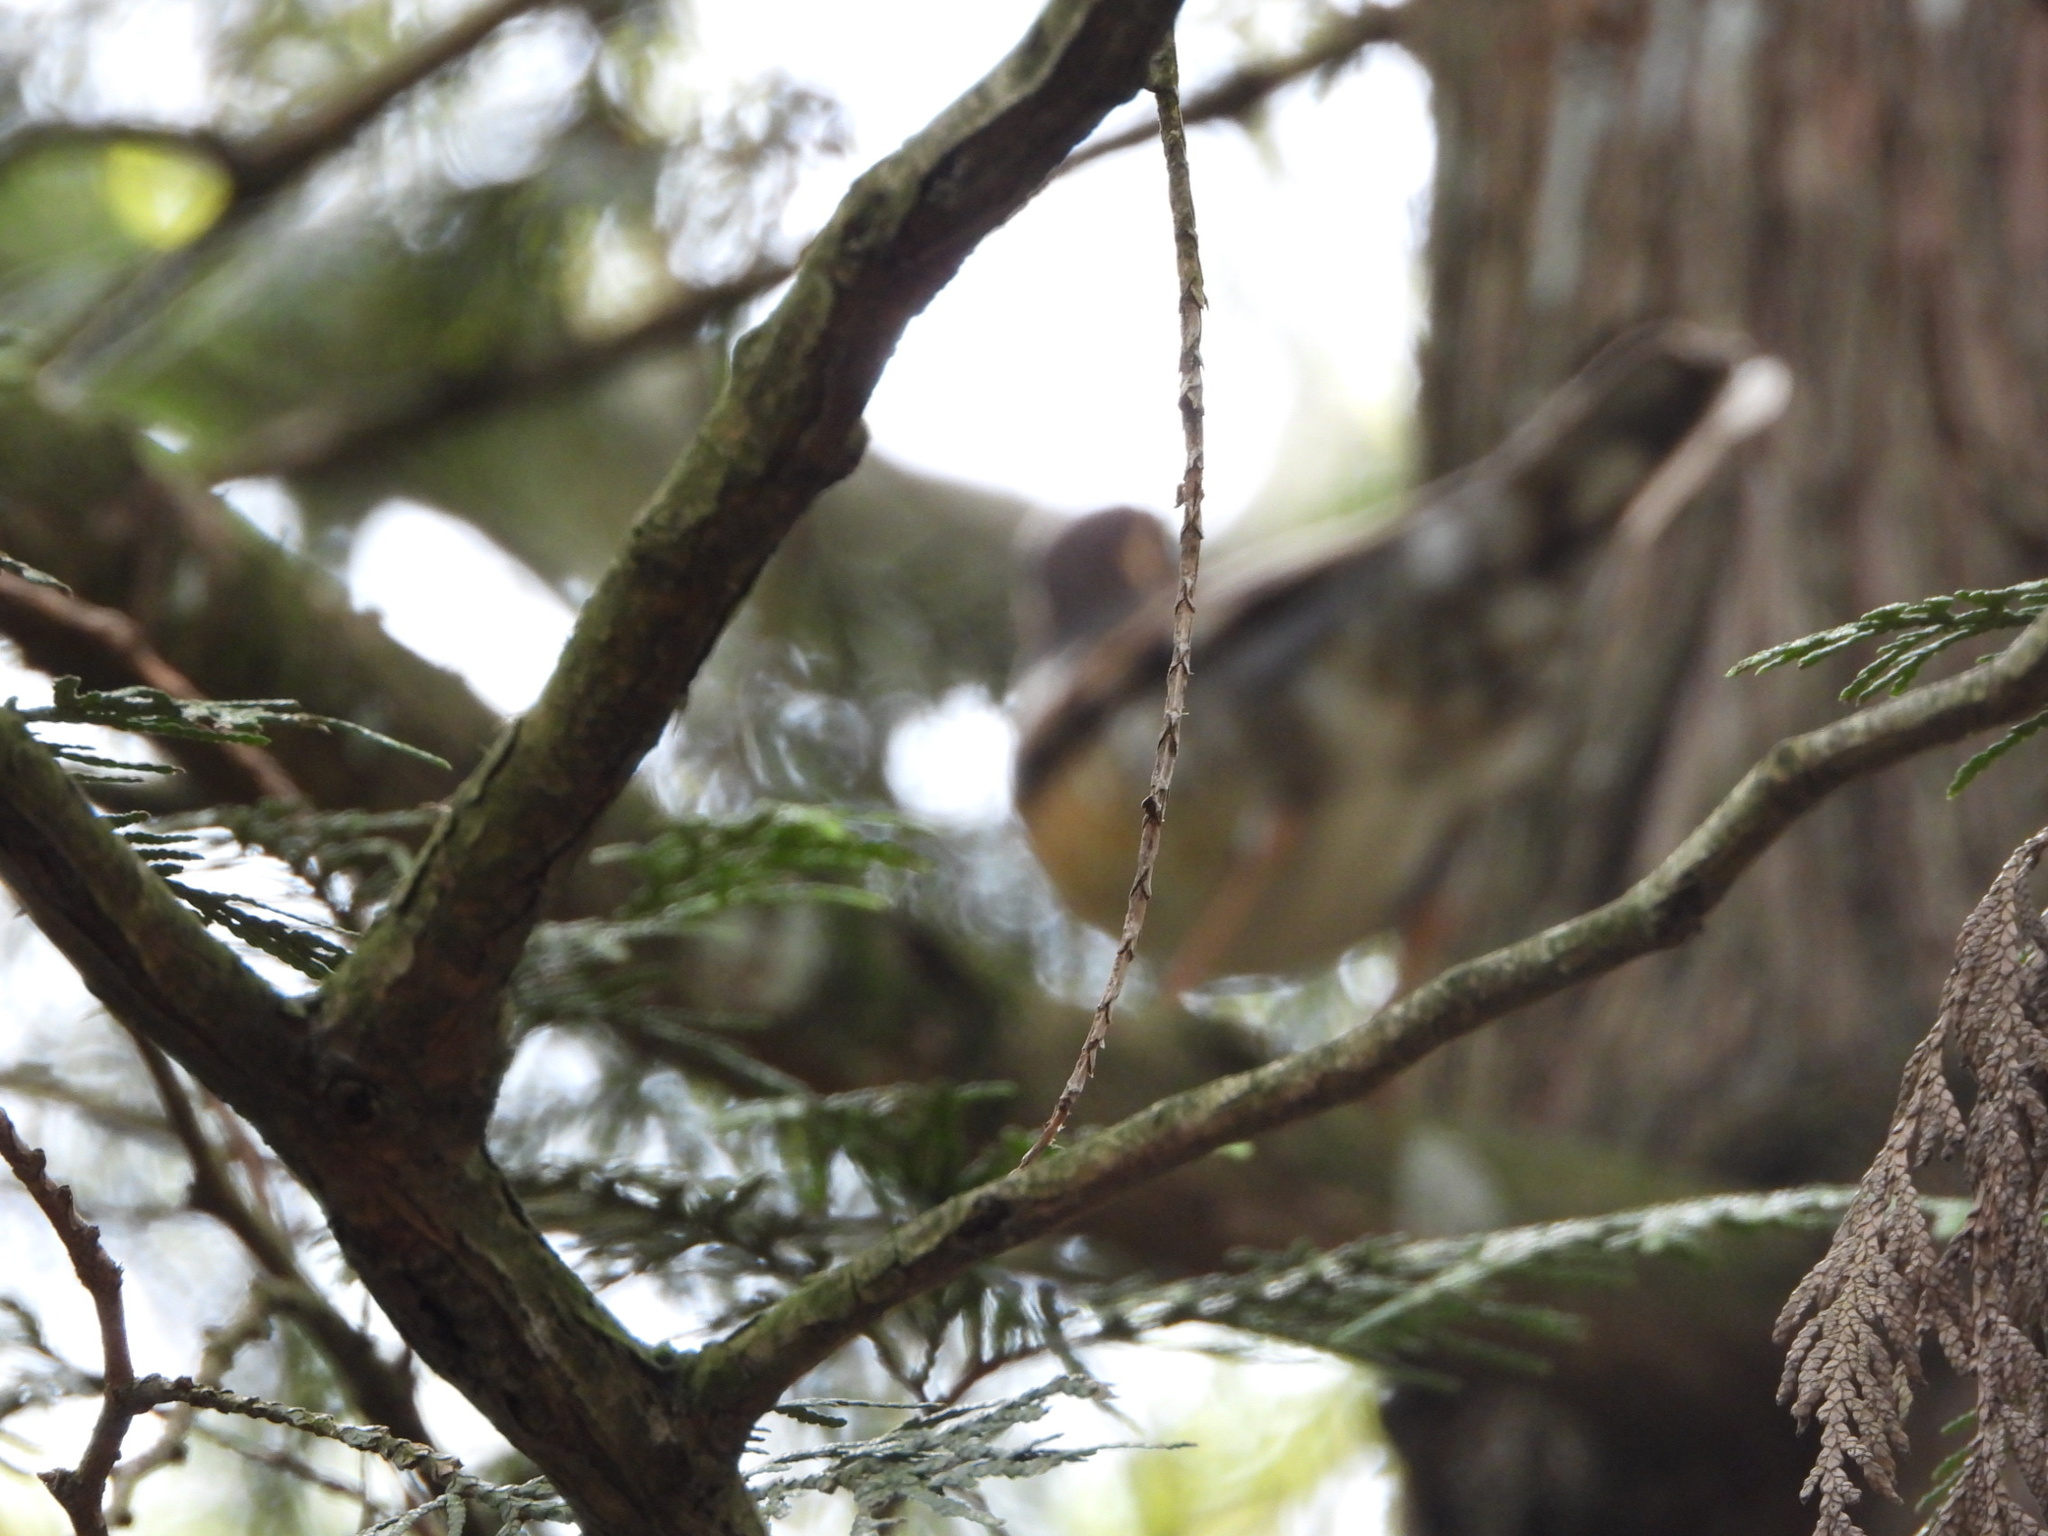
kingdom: Animalia
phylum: Chordata
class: Aves
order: Passeriformes
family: Turdidae
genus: Ixoreus
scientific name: Ixoreus naevius
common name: Varied thrush
